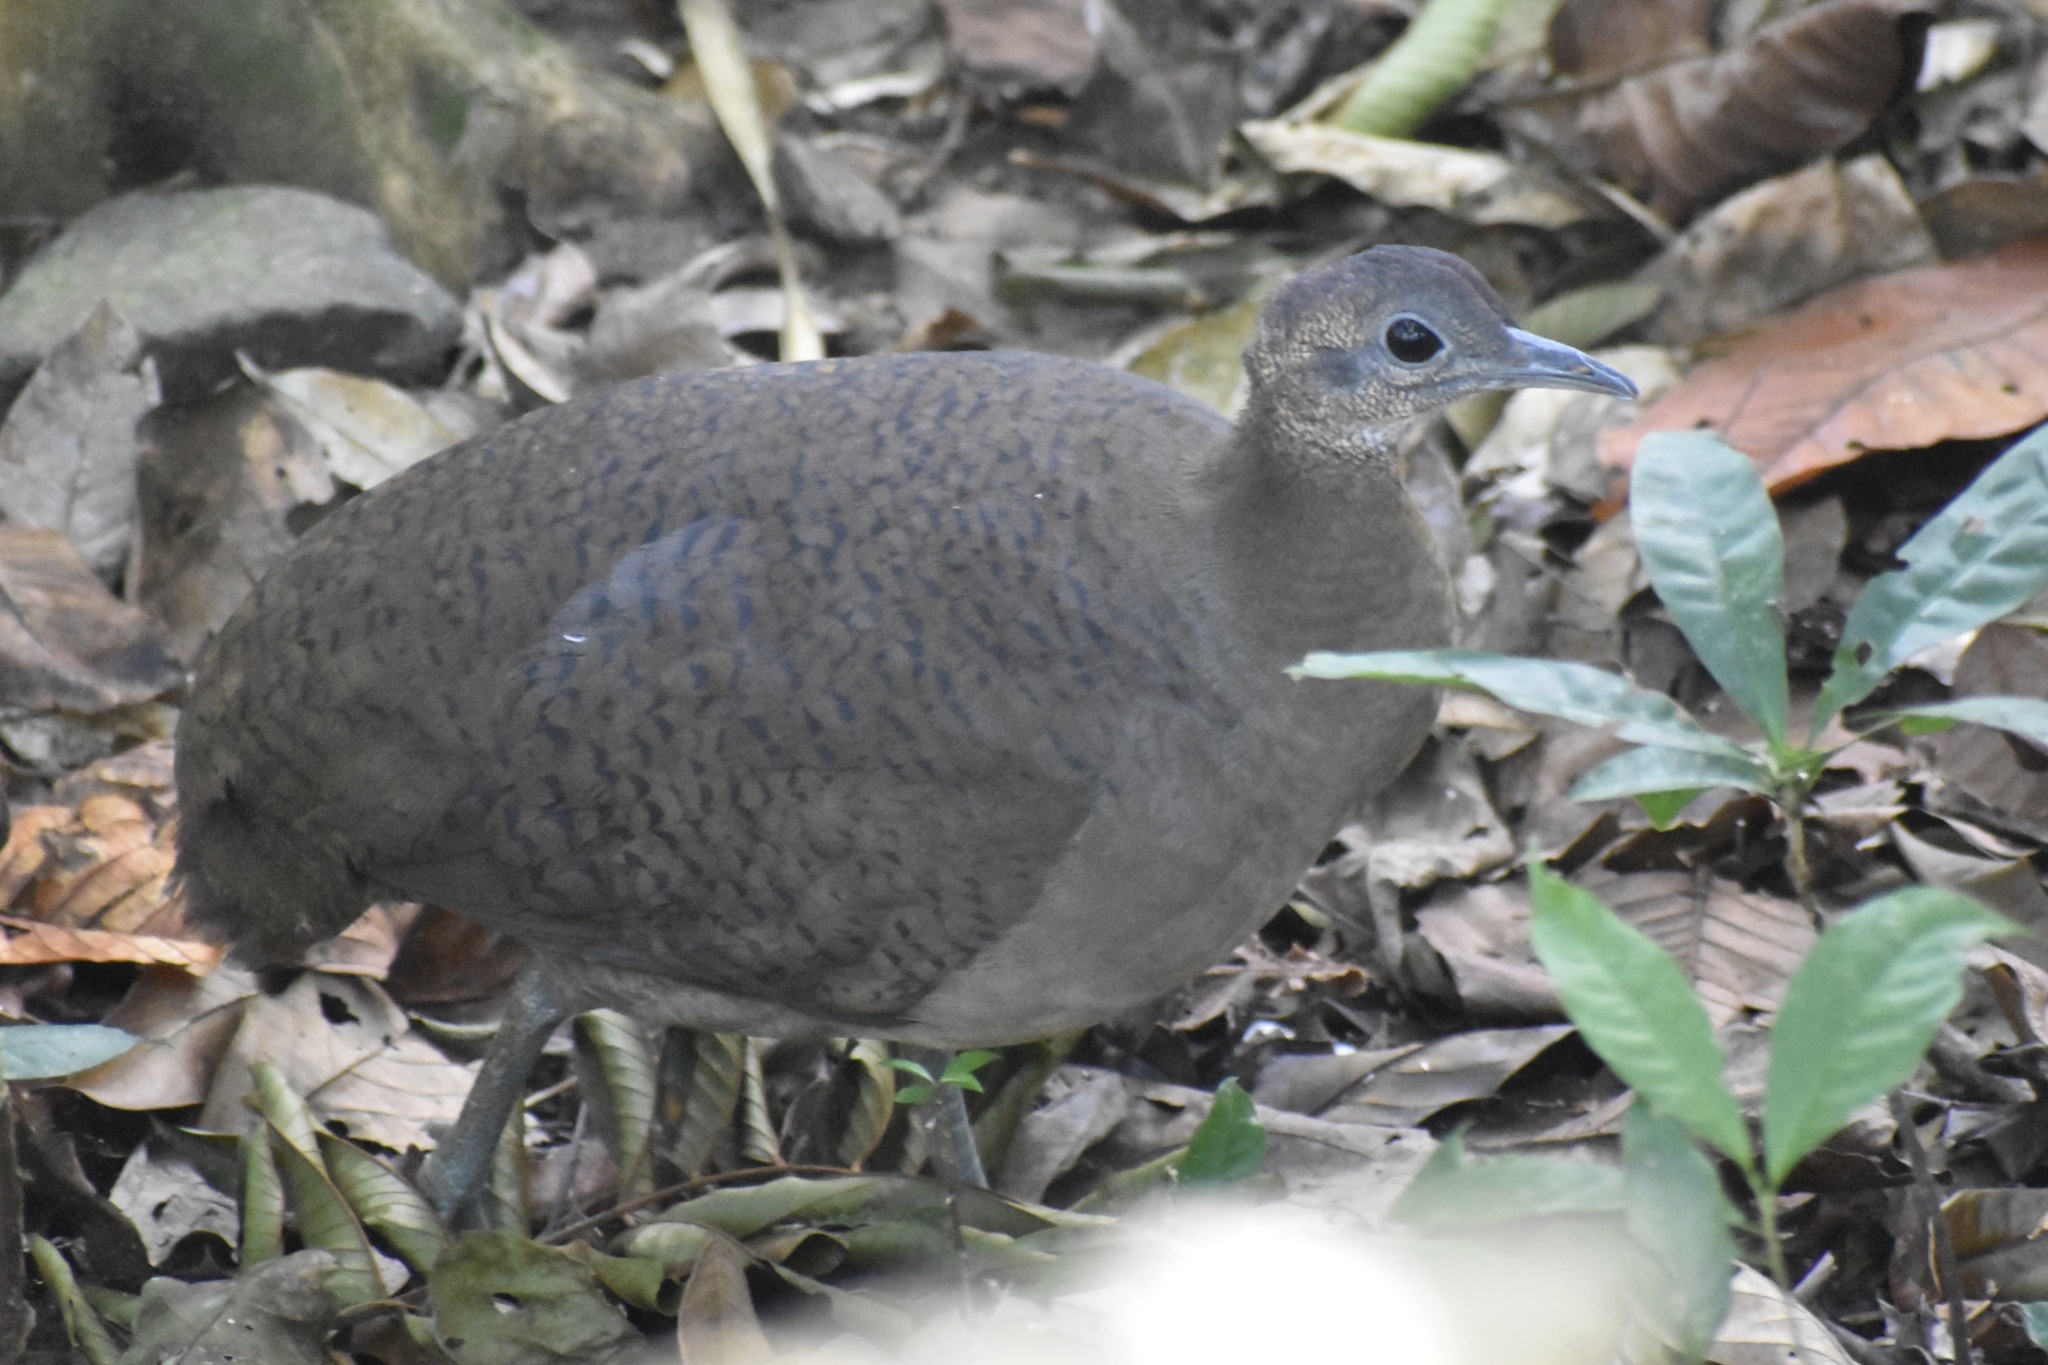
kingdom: Animalia
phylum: Chordata
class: Aves
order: Tinamiformes
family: Tinamidae
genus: Tinamus
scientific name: Tinamus major
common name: Great tinamou
